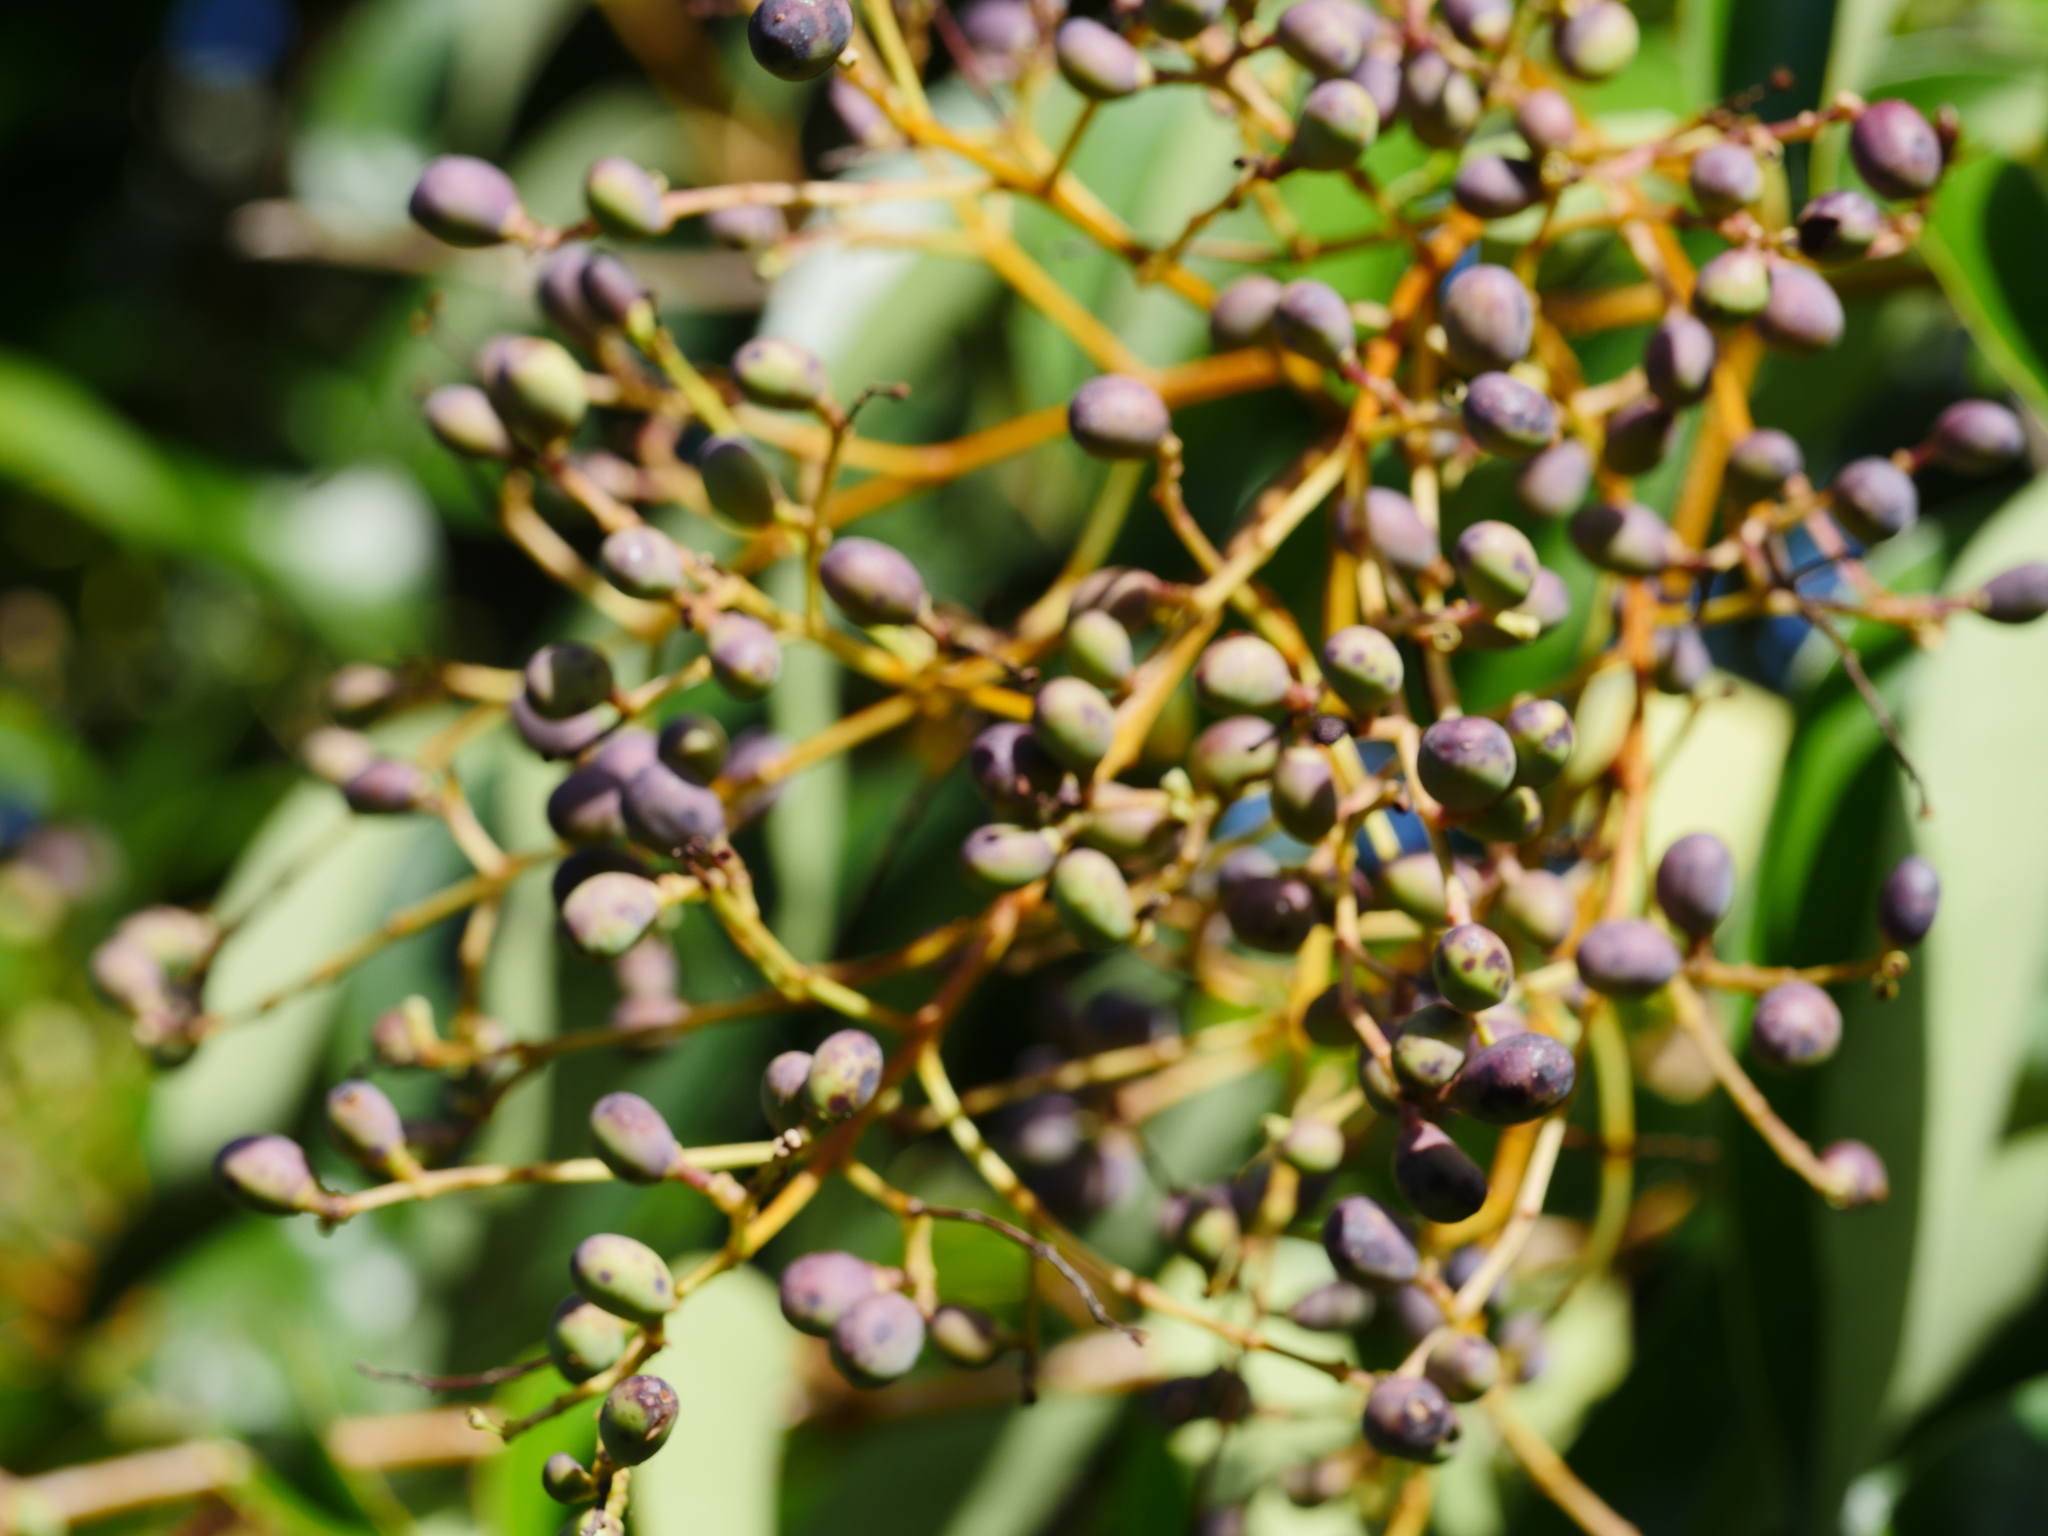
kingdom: Plantae
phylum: Tracheophyta
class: Magnoliopsida
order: Lamiales
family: Oleaceae
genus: Ligustrum
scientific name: Ligustrum lucidum
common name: Glossy privet
